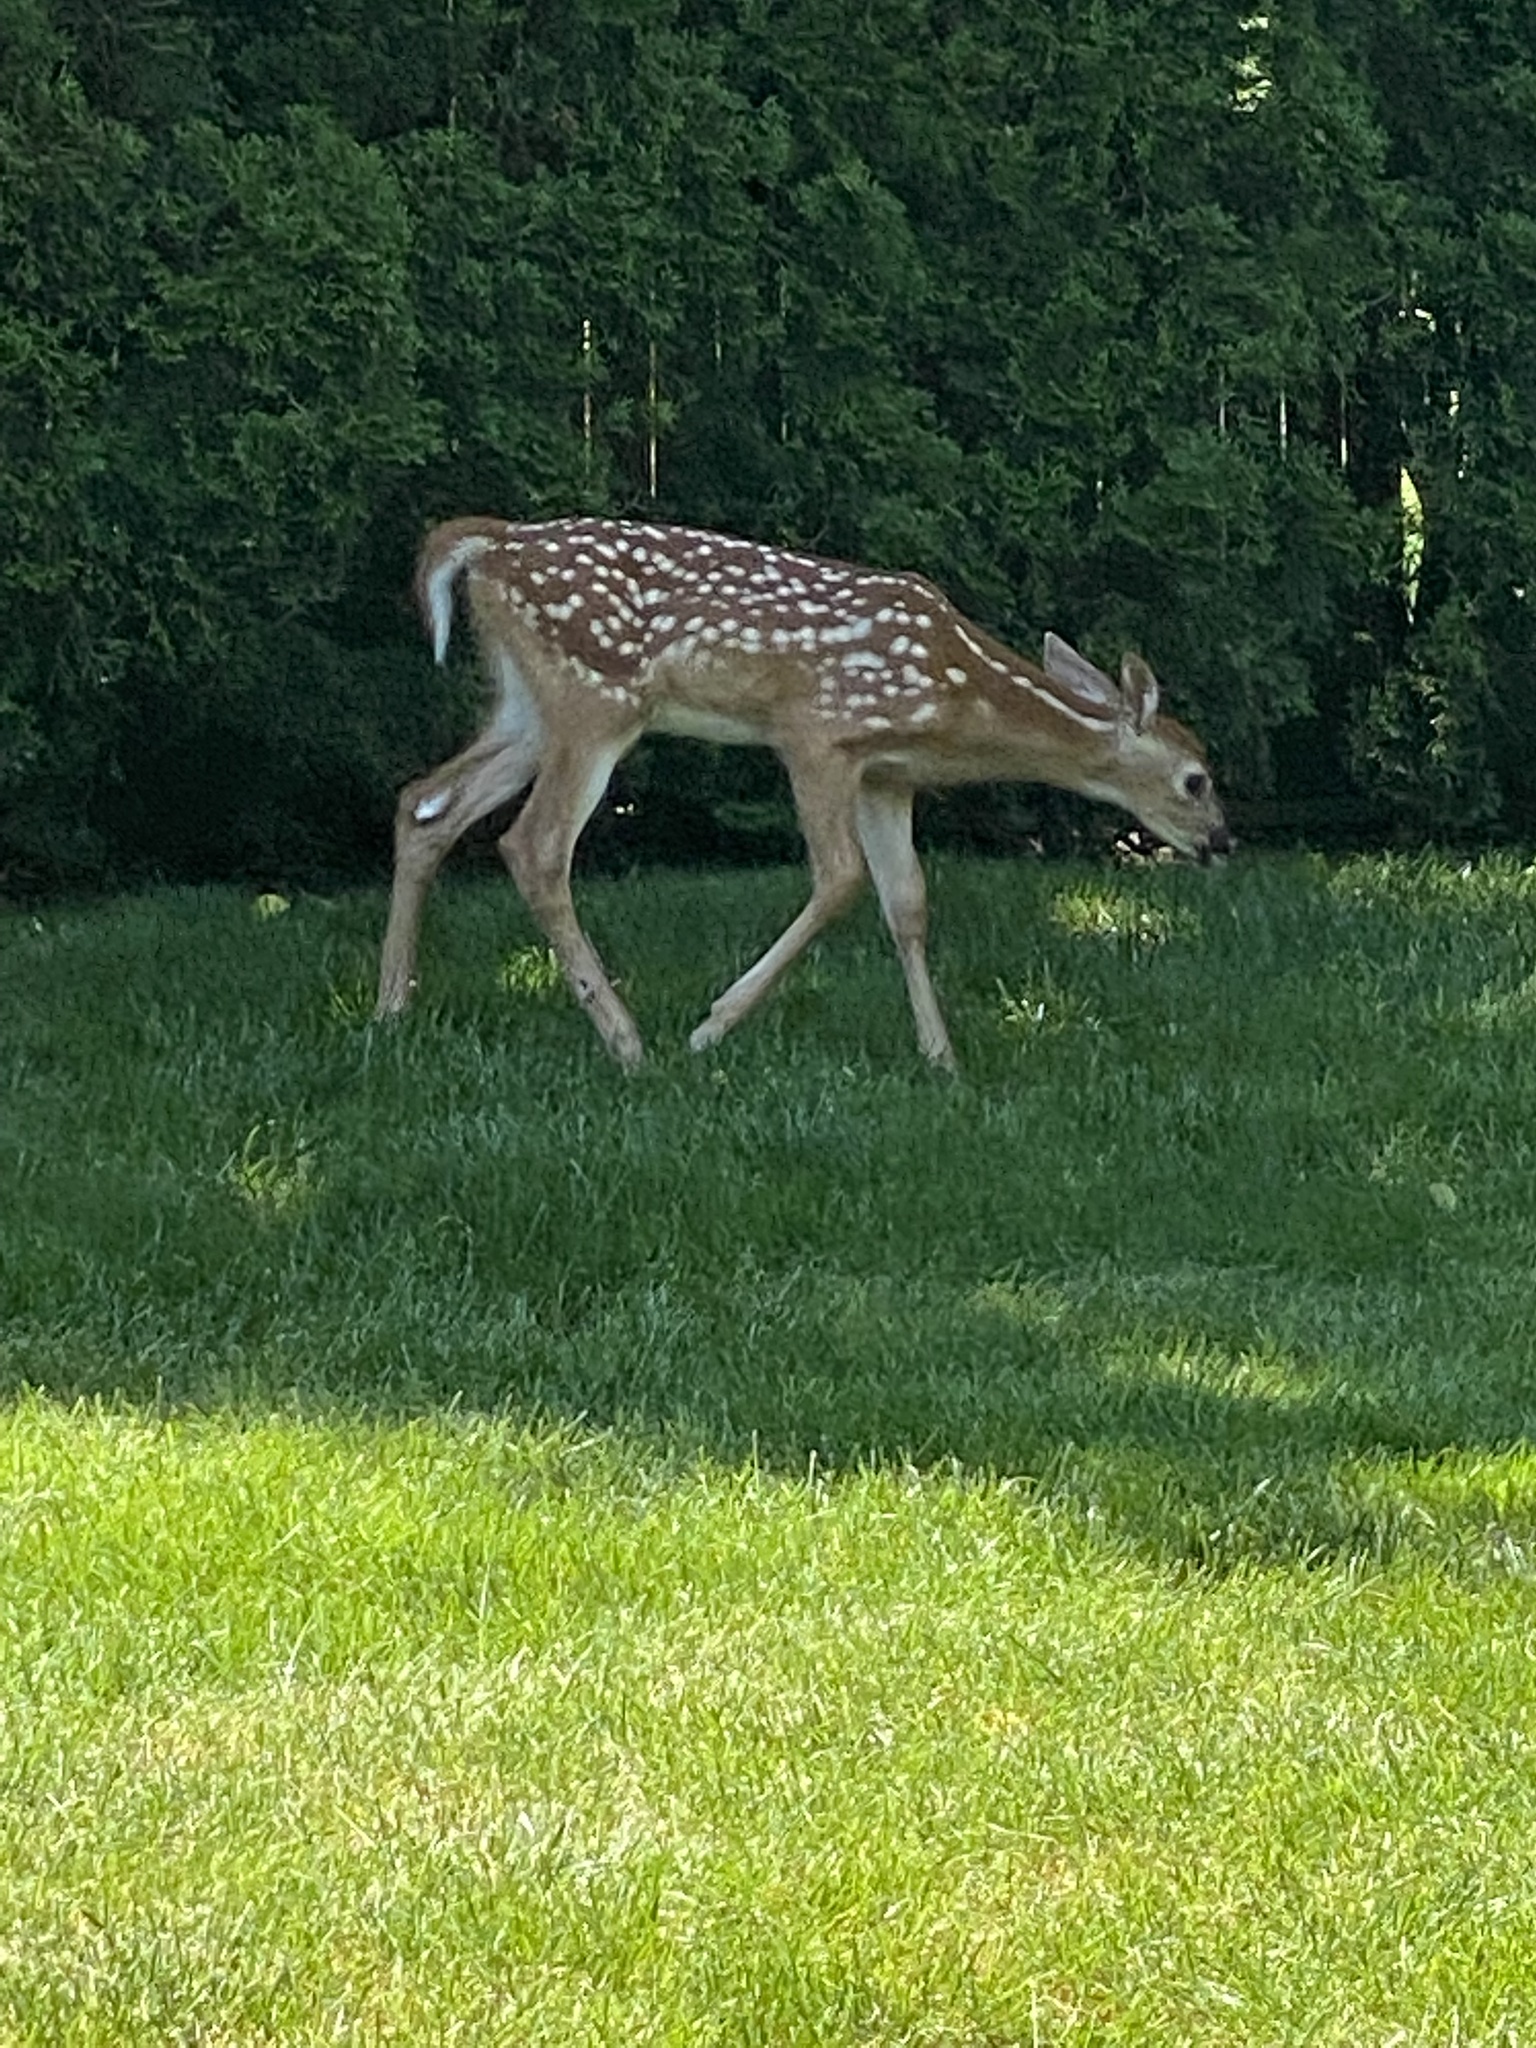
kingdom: Animalia
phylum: Chordata
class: Mammalia
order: Artiodactyla
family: Cervidae
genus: Odocoileus
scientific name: Odocoileus virginianus
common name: White-tailed deer
